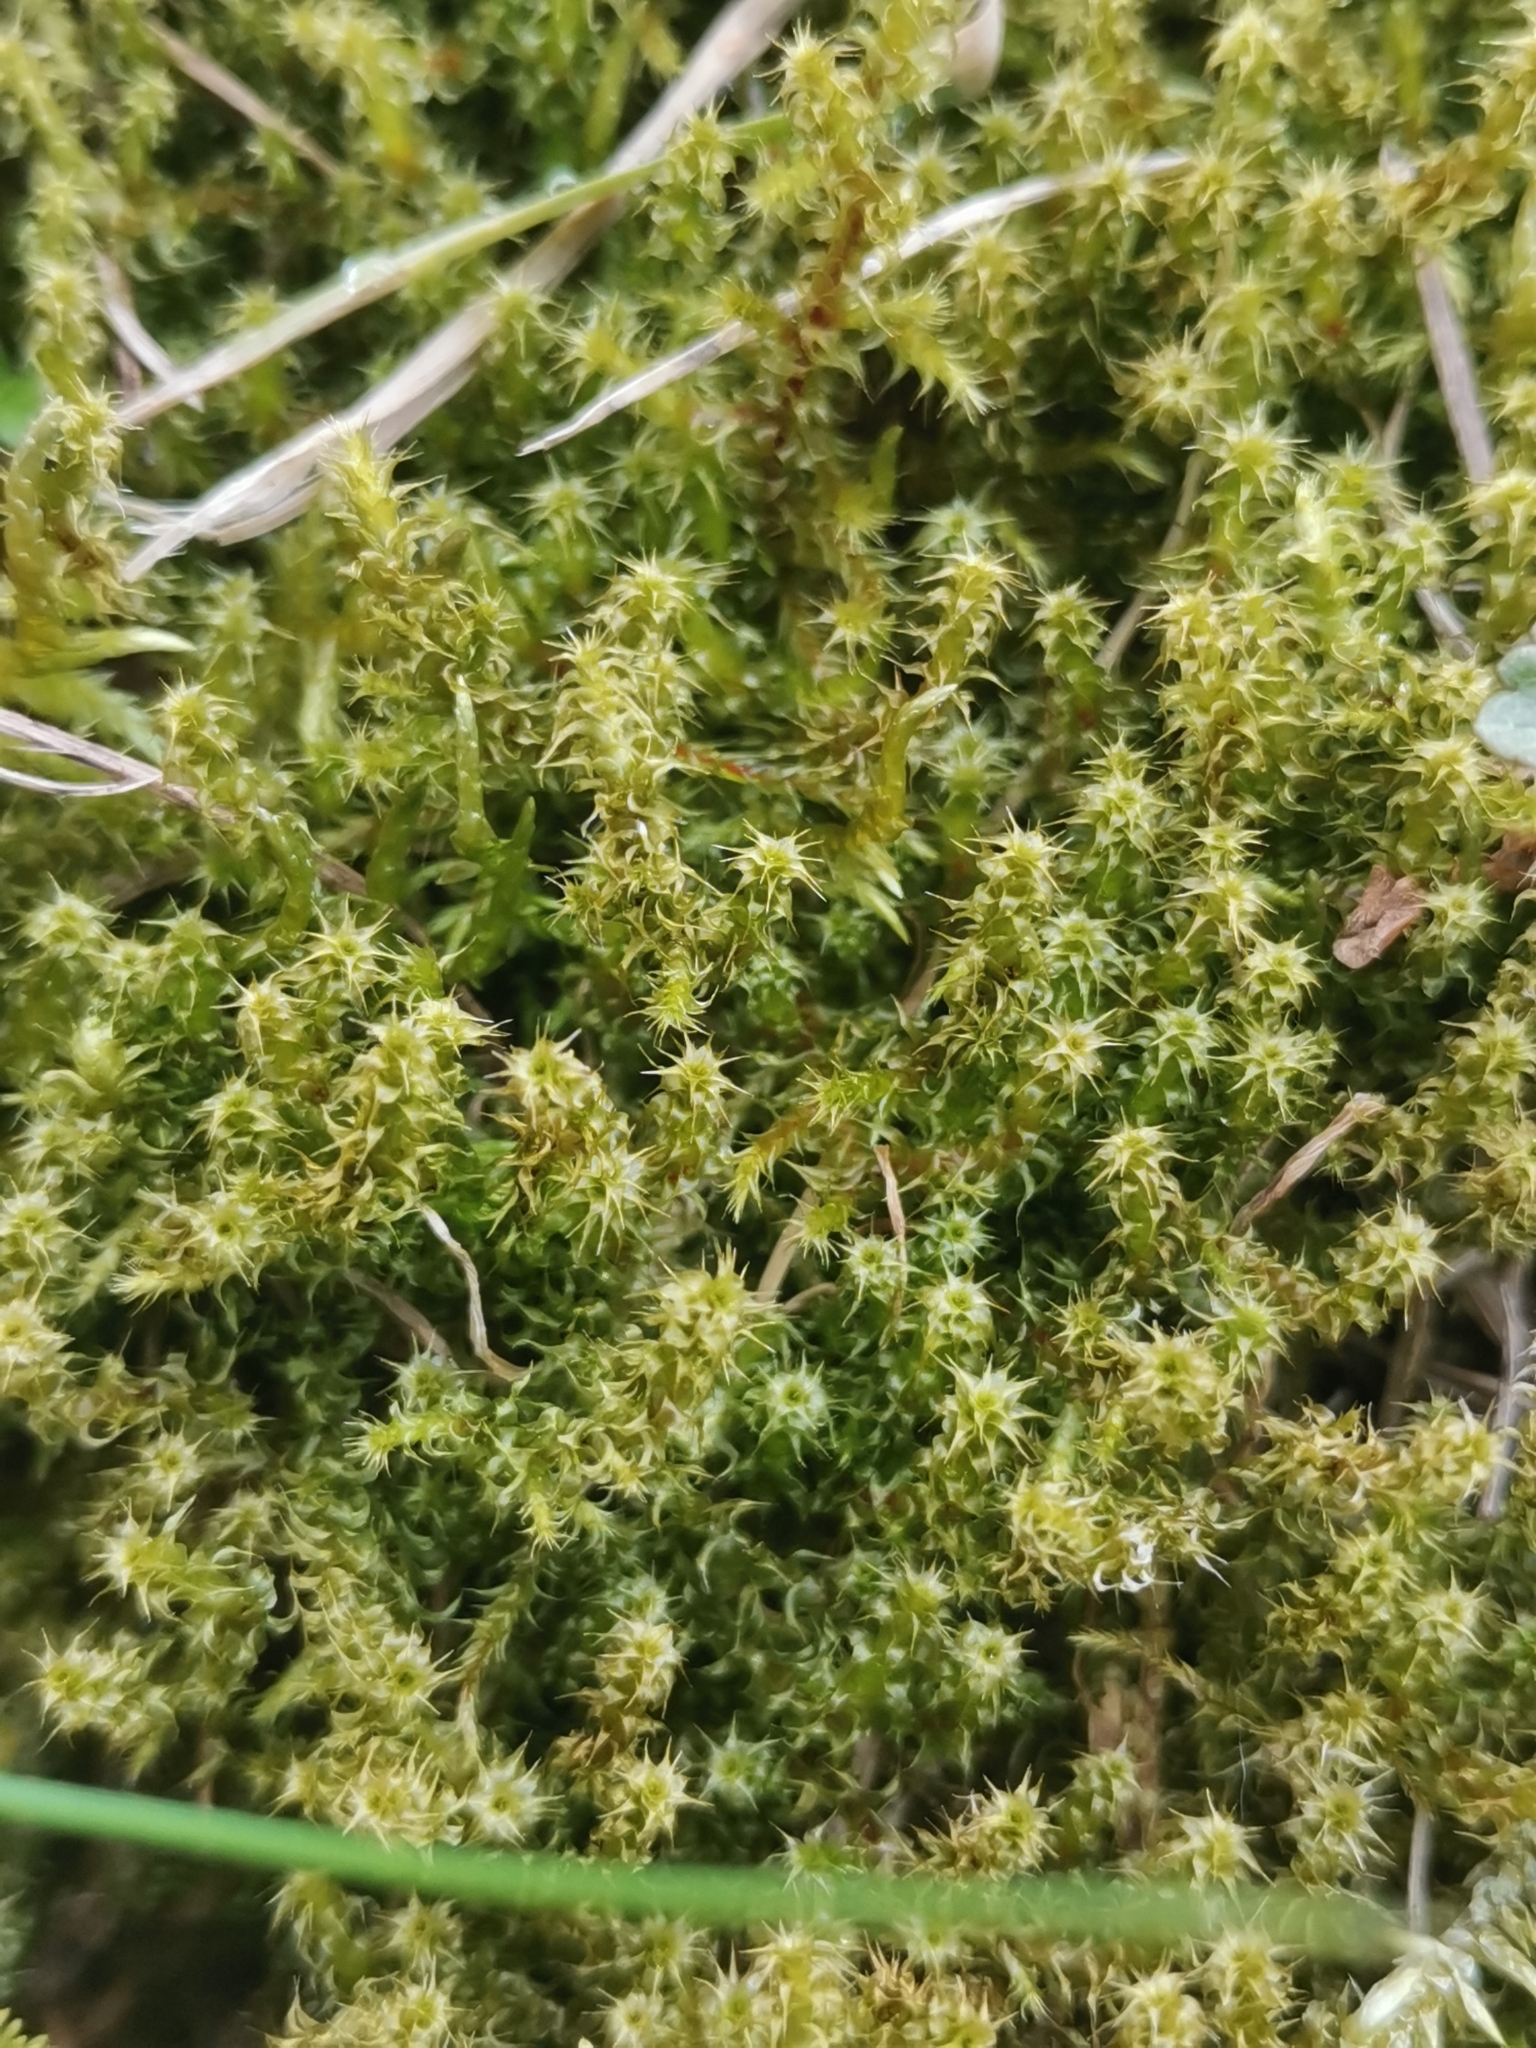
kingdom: Plantae
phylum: Bryophyta
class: Bryopsida
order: Hypnales
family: Hylocomiaceae
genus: Rhytidiadelphus
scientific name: Rhytidiadelphus squarrosus
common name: Springy turf-moss
